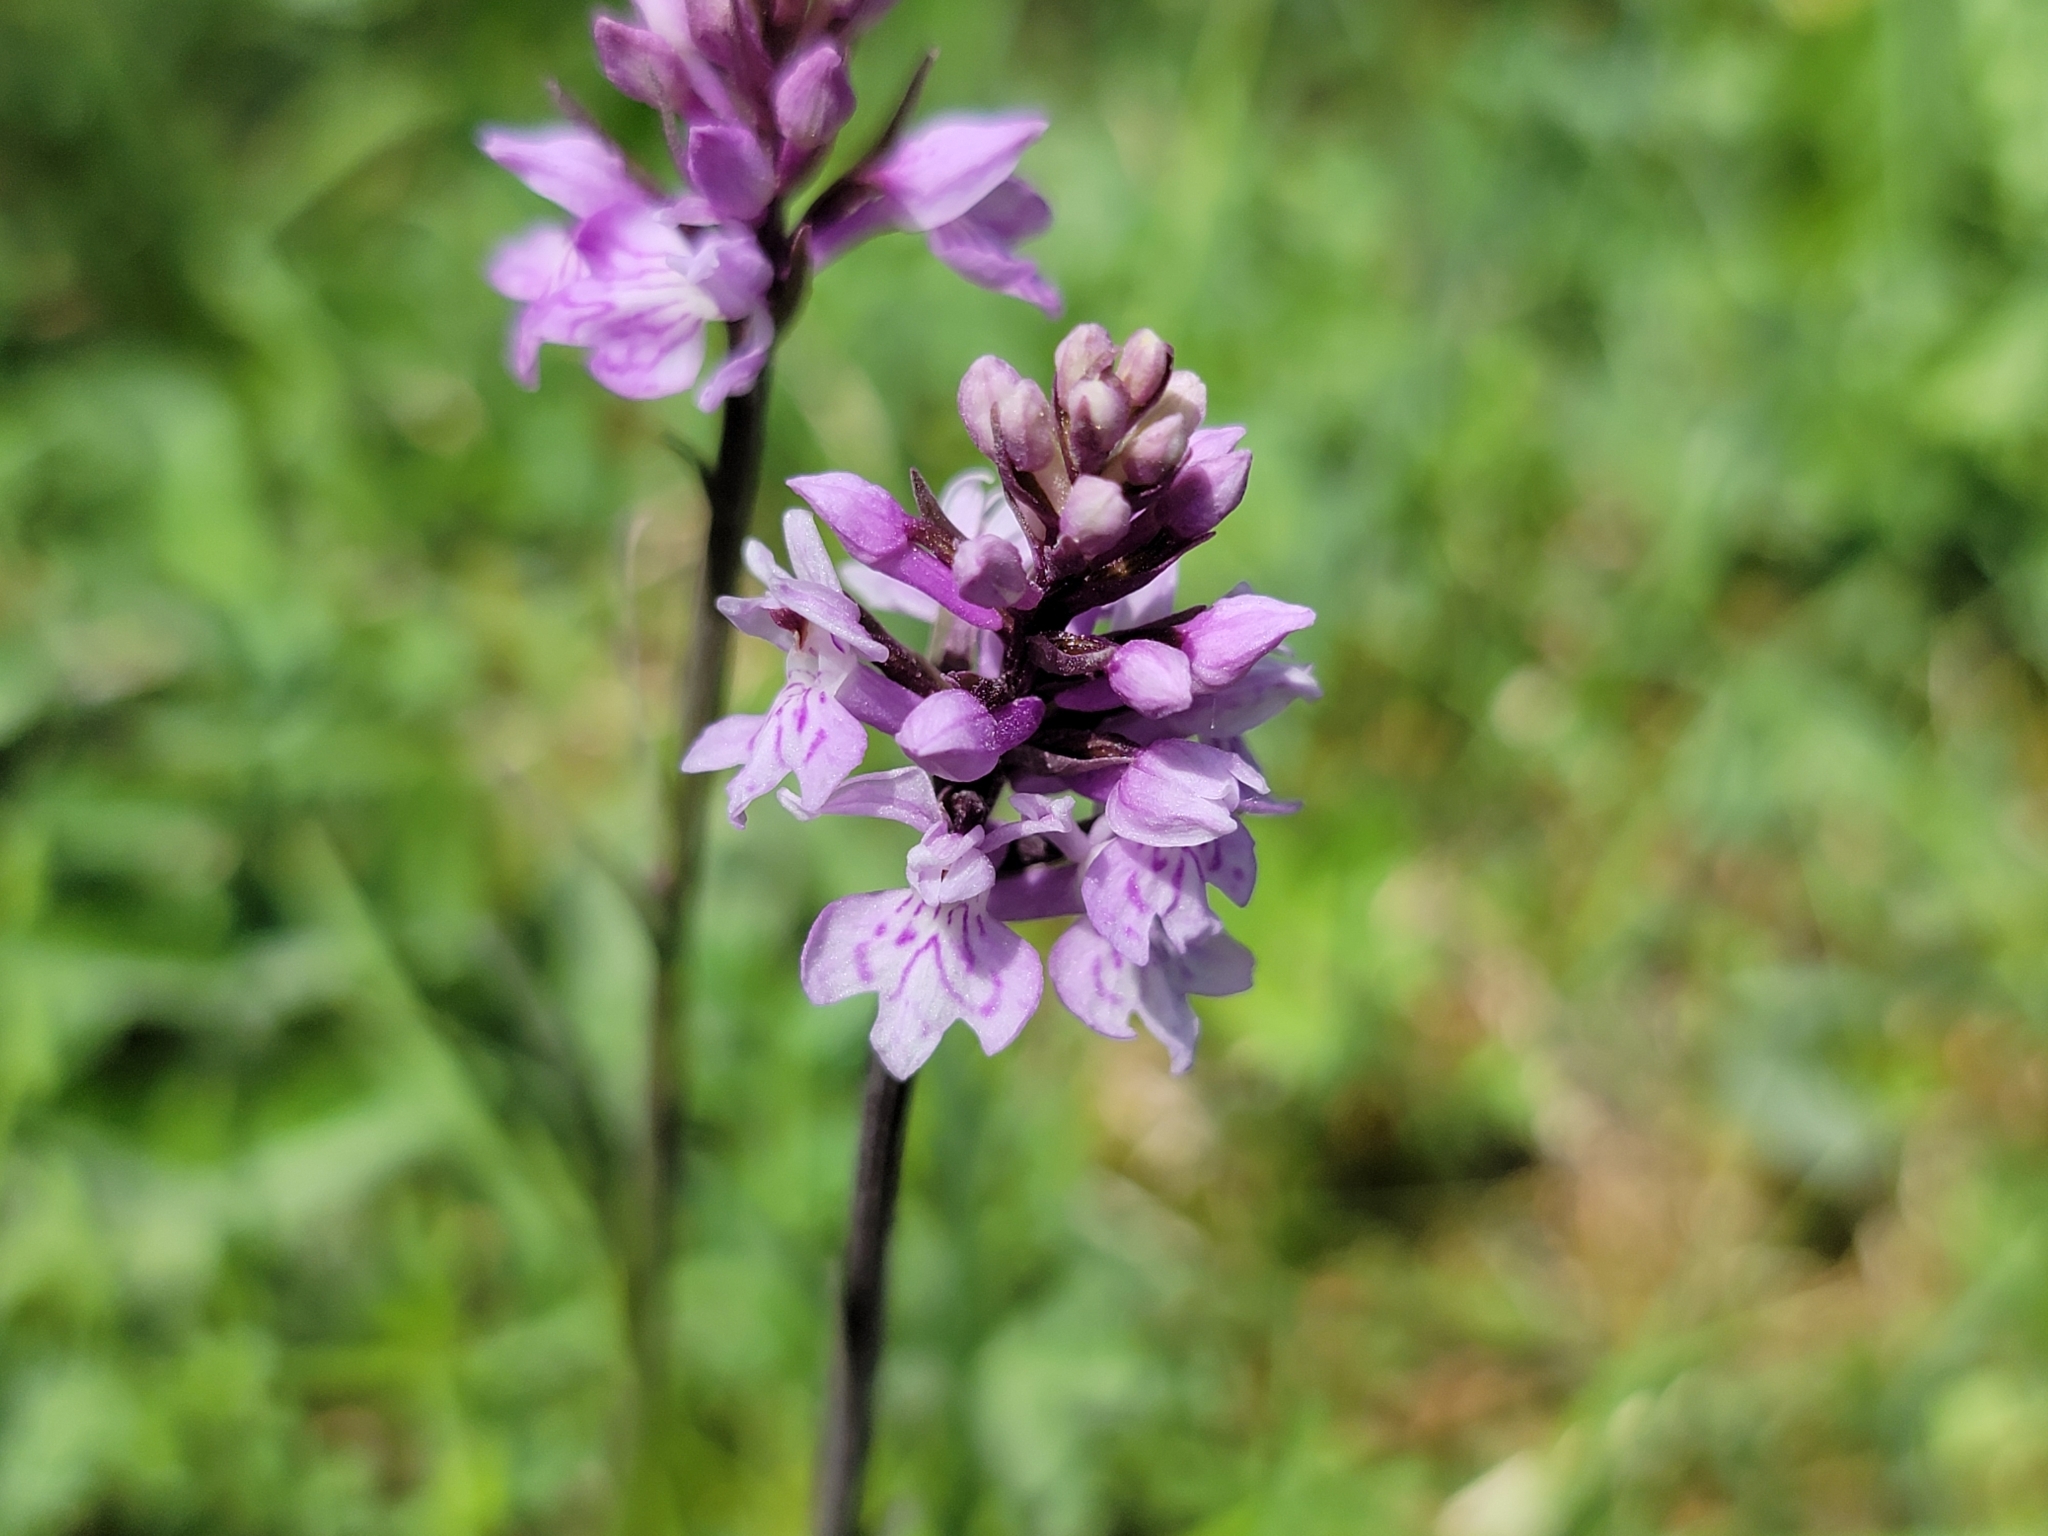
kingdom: Plantae
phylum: Tracheophyta
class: Liliopsida
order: Asparagales
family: Orchidaceae
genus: Dactylorhiza
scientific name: Dactylorhiza maculata
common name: Heath spotted-orchid
